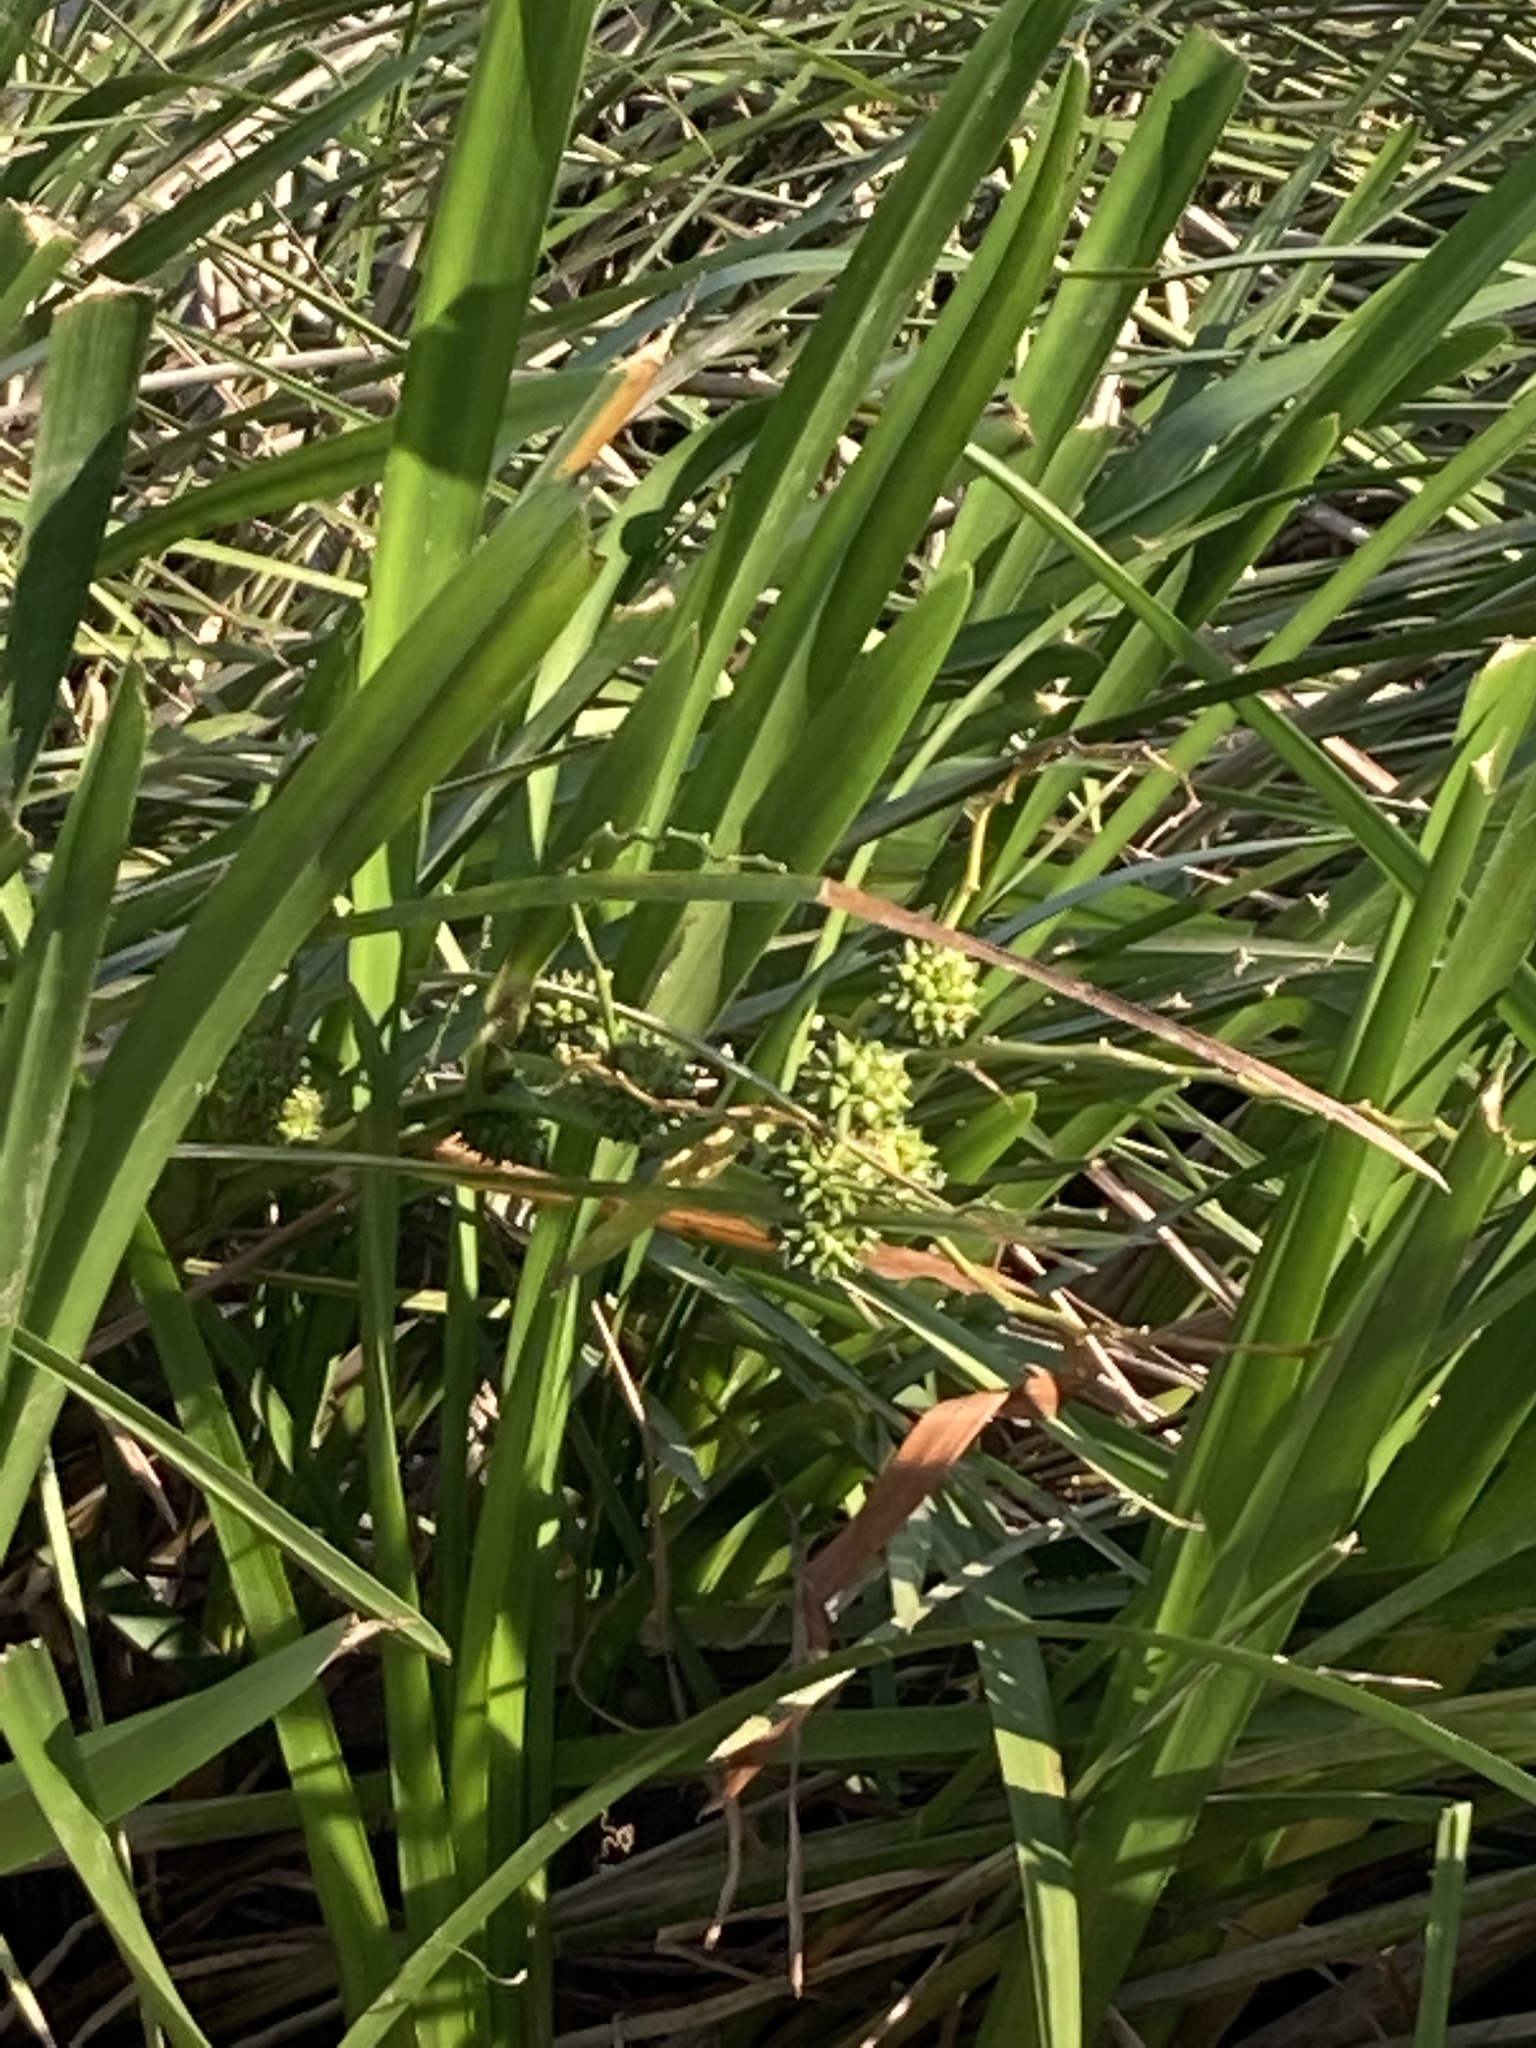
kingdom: Plantae
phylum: Tracheophyta
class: Liliopsida
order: Poales
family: Typhaceae
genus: Sparganium
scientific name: Sparganium erectum
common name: Branched bur-reed
